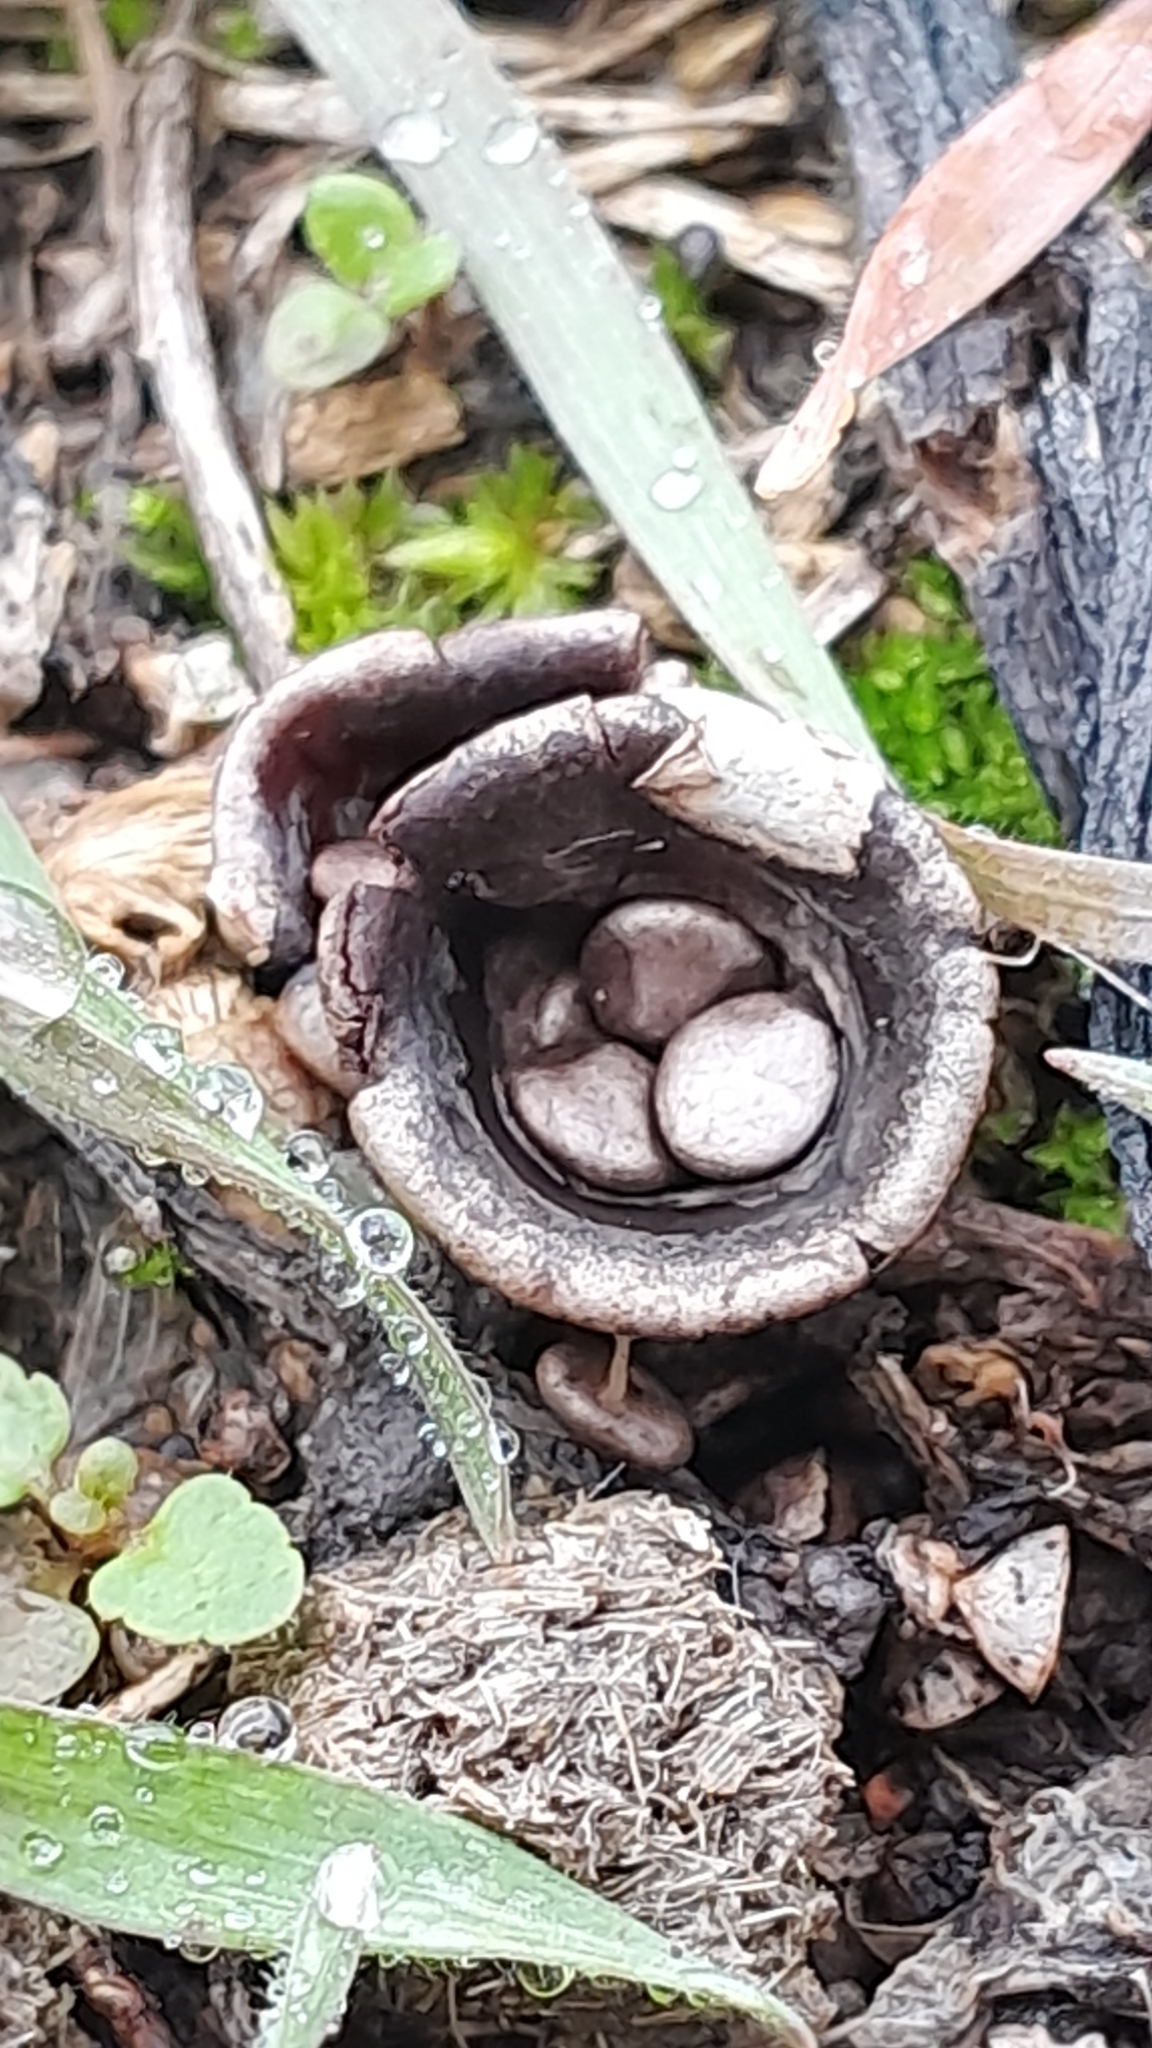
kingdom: Fungi
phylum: Basidiomycota
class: Agaricomycetes
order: Agaricales
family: Agaricaceae
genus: Cyathus
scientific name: Cyathus olla
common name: Field bird's nest
